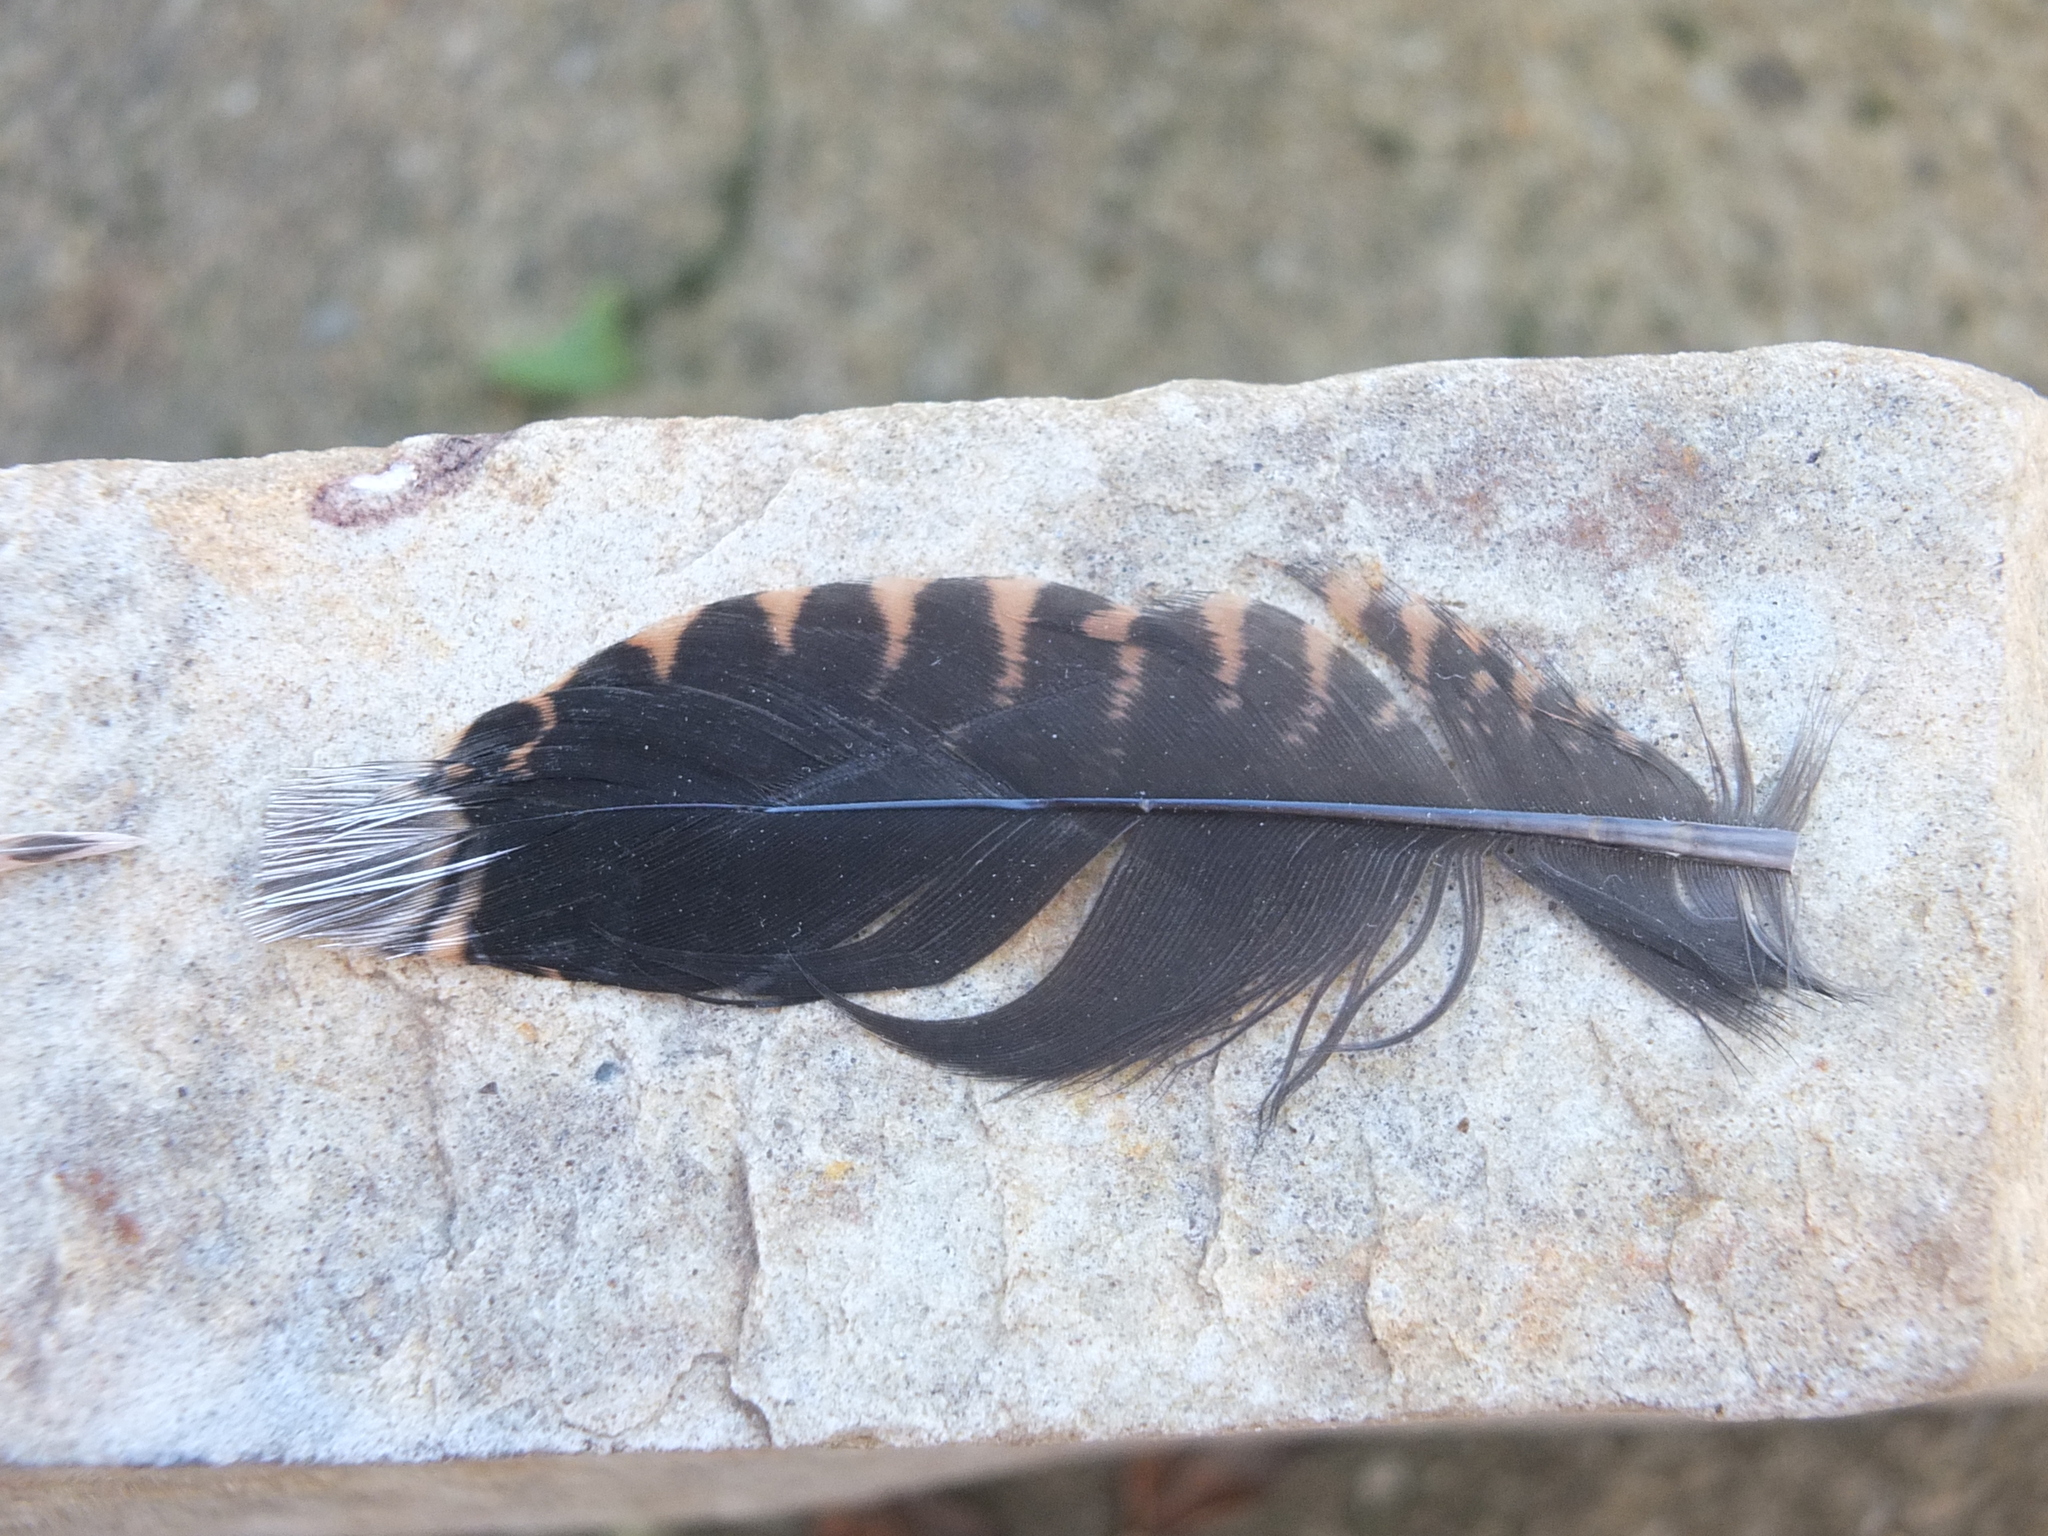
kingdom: Animalia
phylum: Chordata
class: Aves
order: Charadriiformes
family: Scolopacidae
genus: Scolopax
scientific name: Scolopax rusticola
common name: Eurasian woodcock
